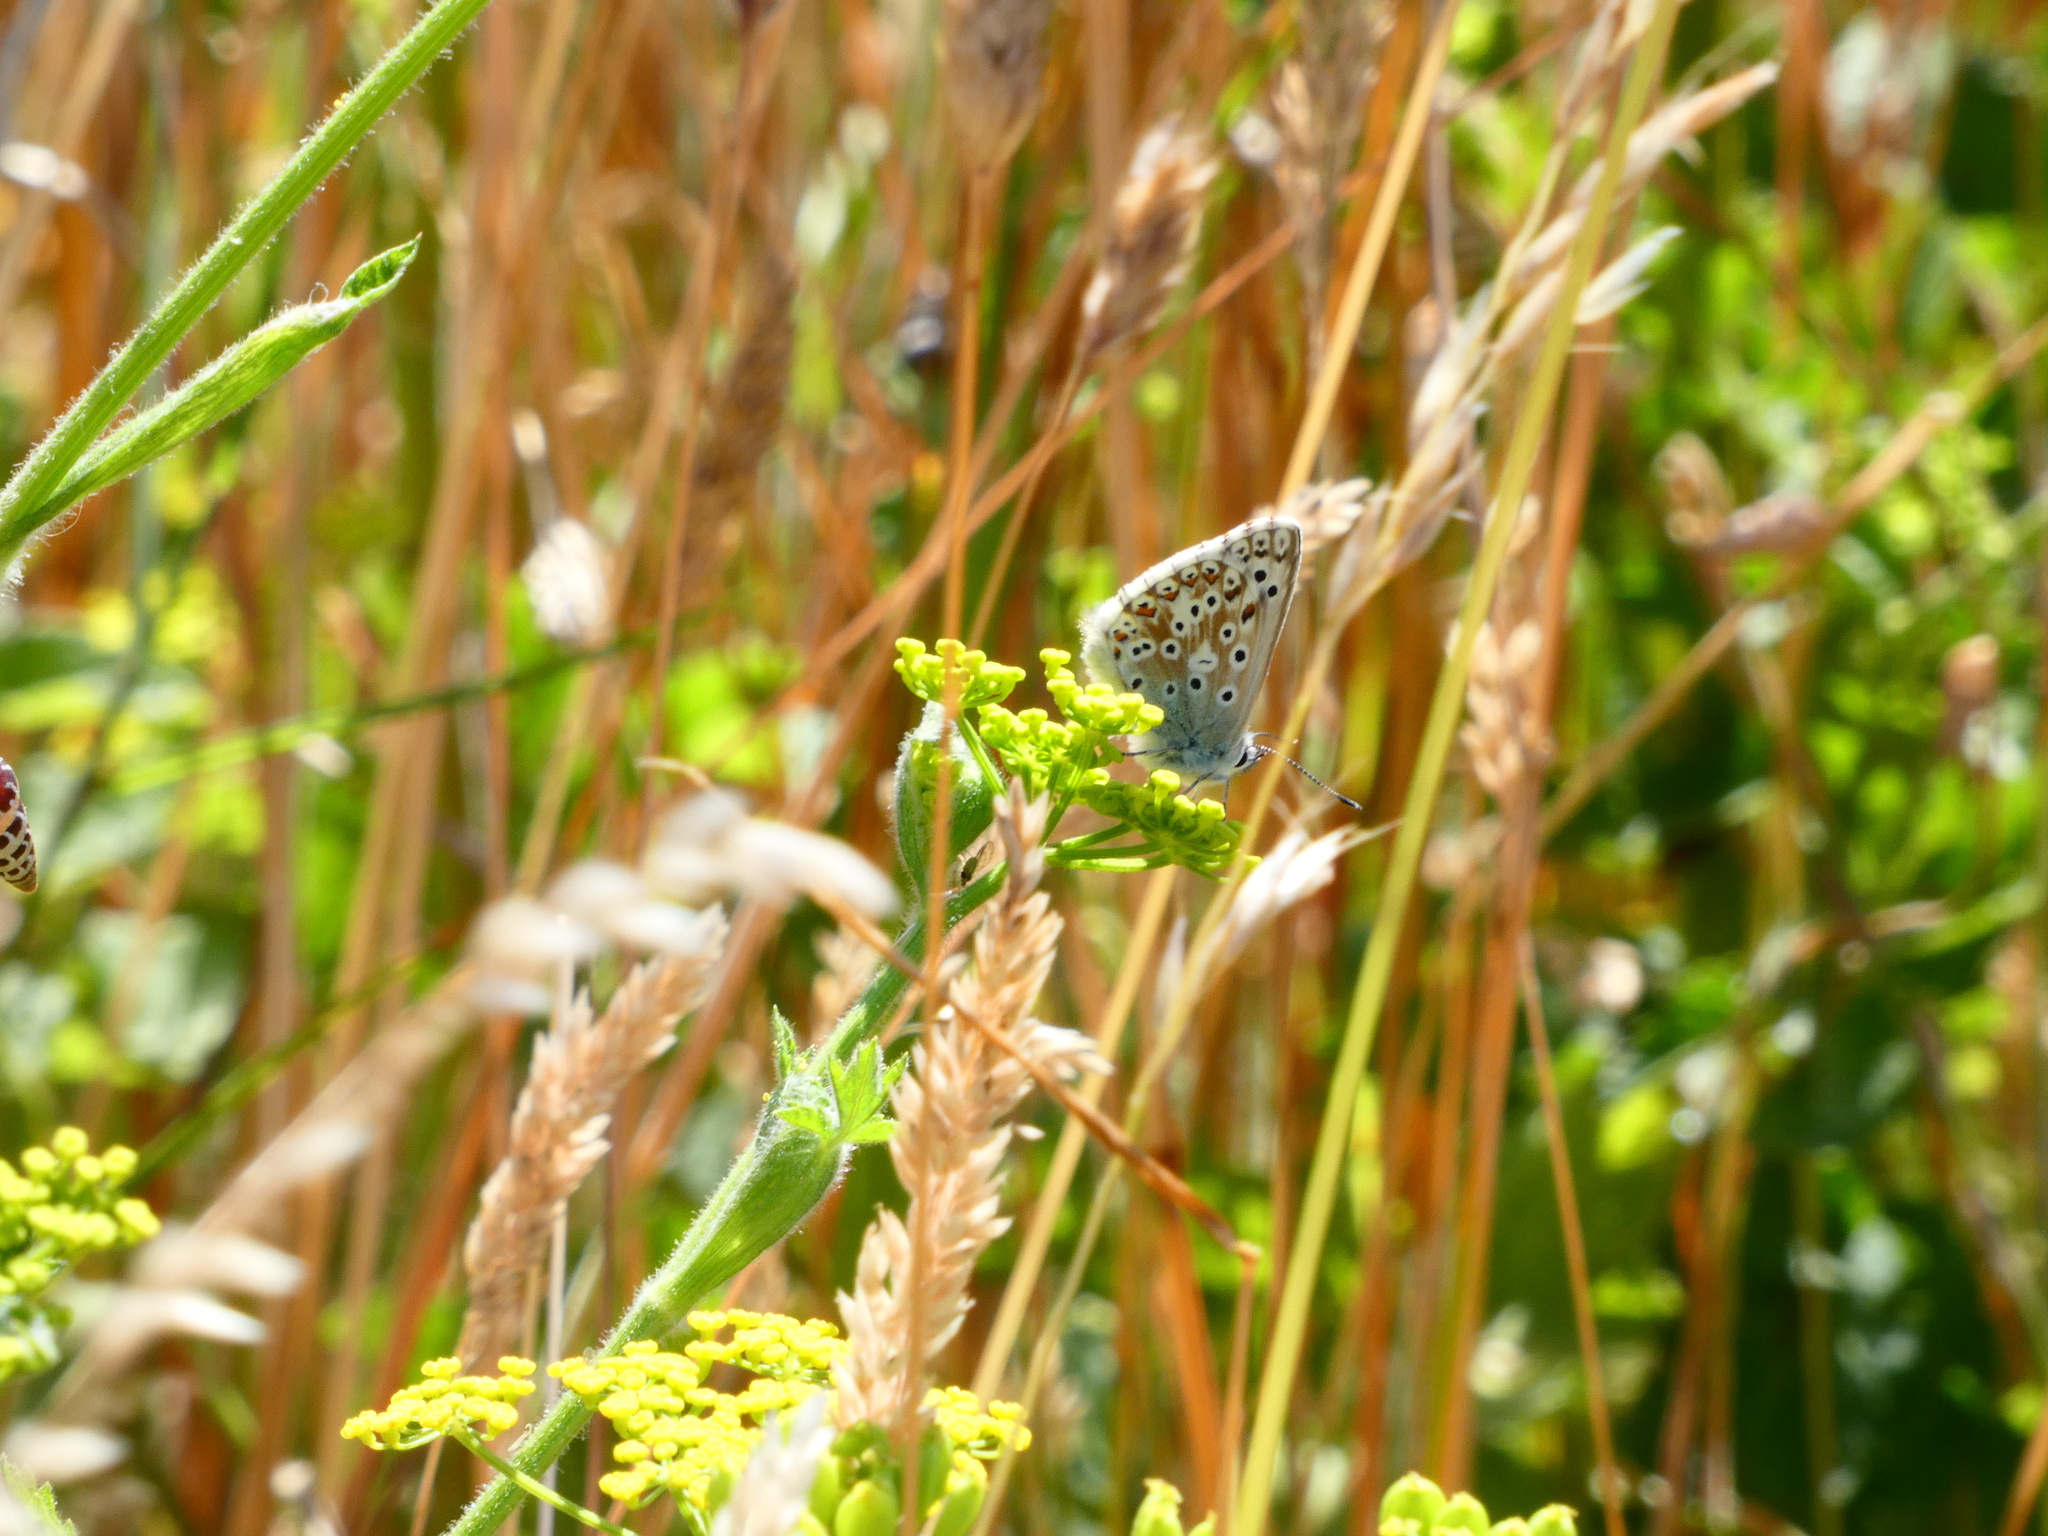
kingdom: Animalia
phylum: Arthropoda
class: Insecta
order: Lepidoptera
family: Lycaenidae
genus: Lysandra
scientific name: Lysandra coridon
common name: Chalkhill blue
